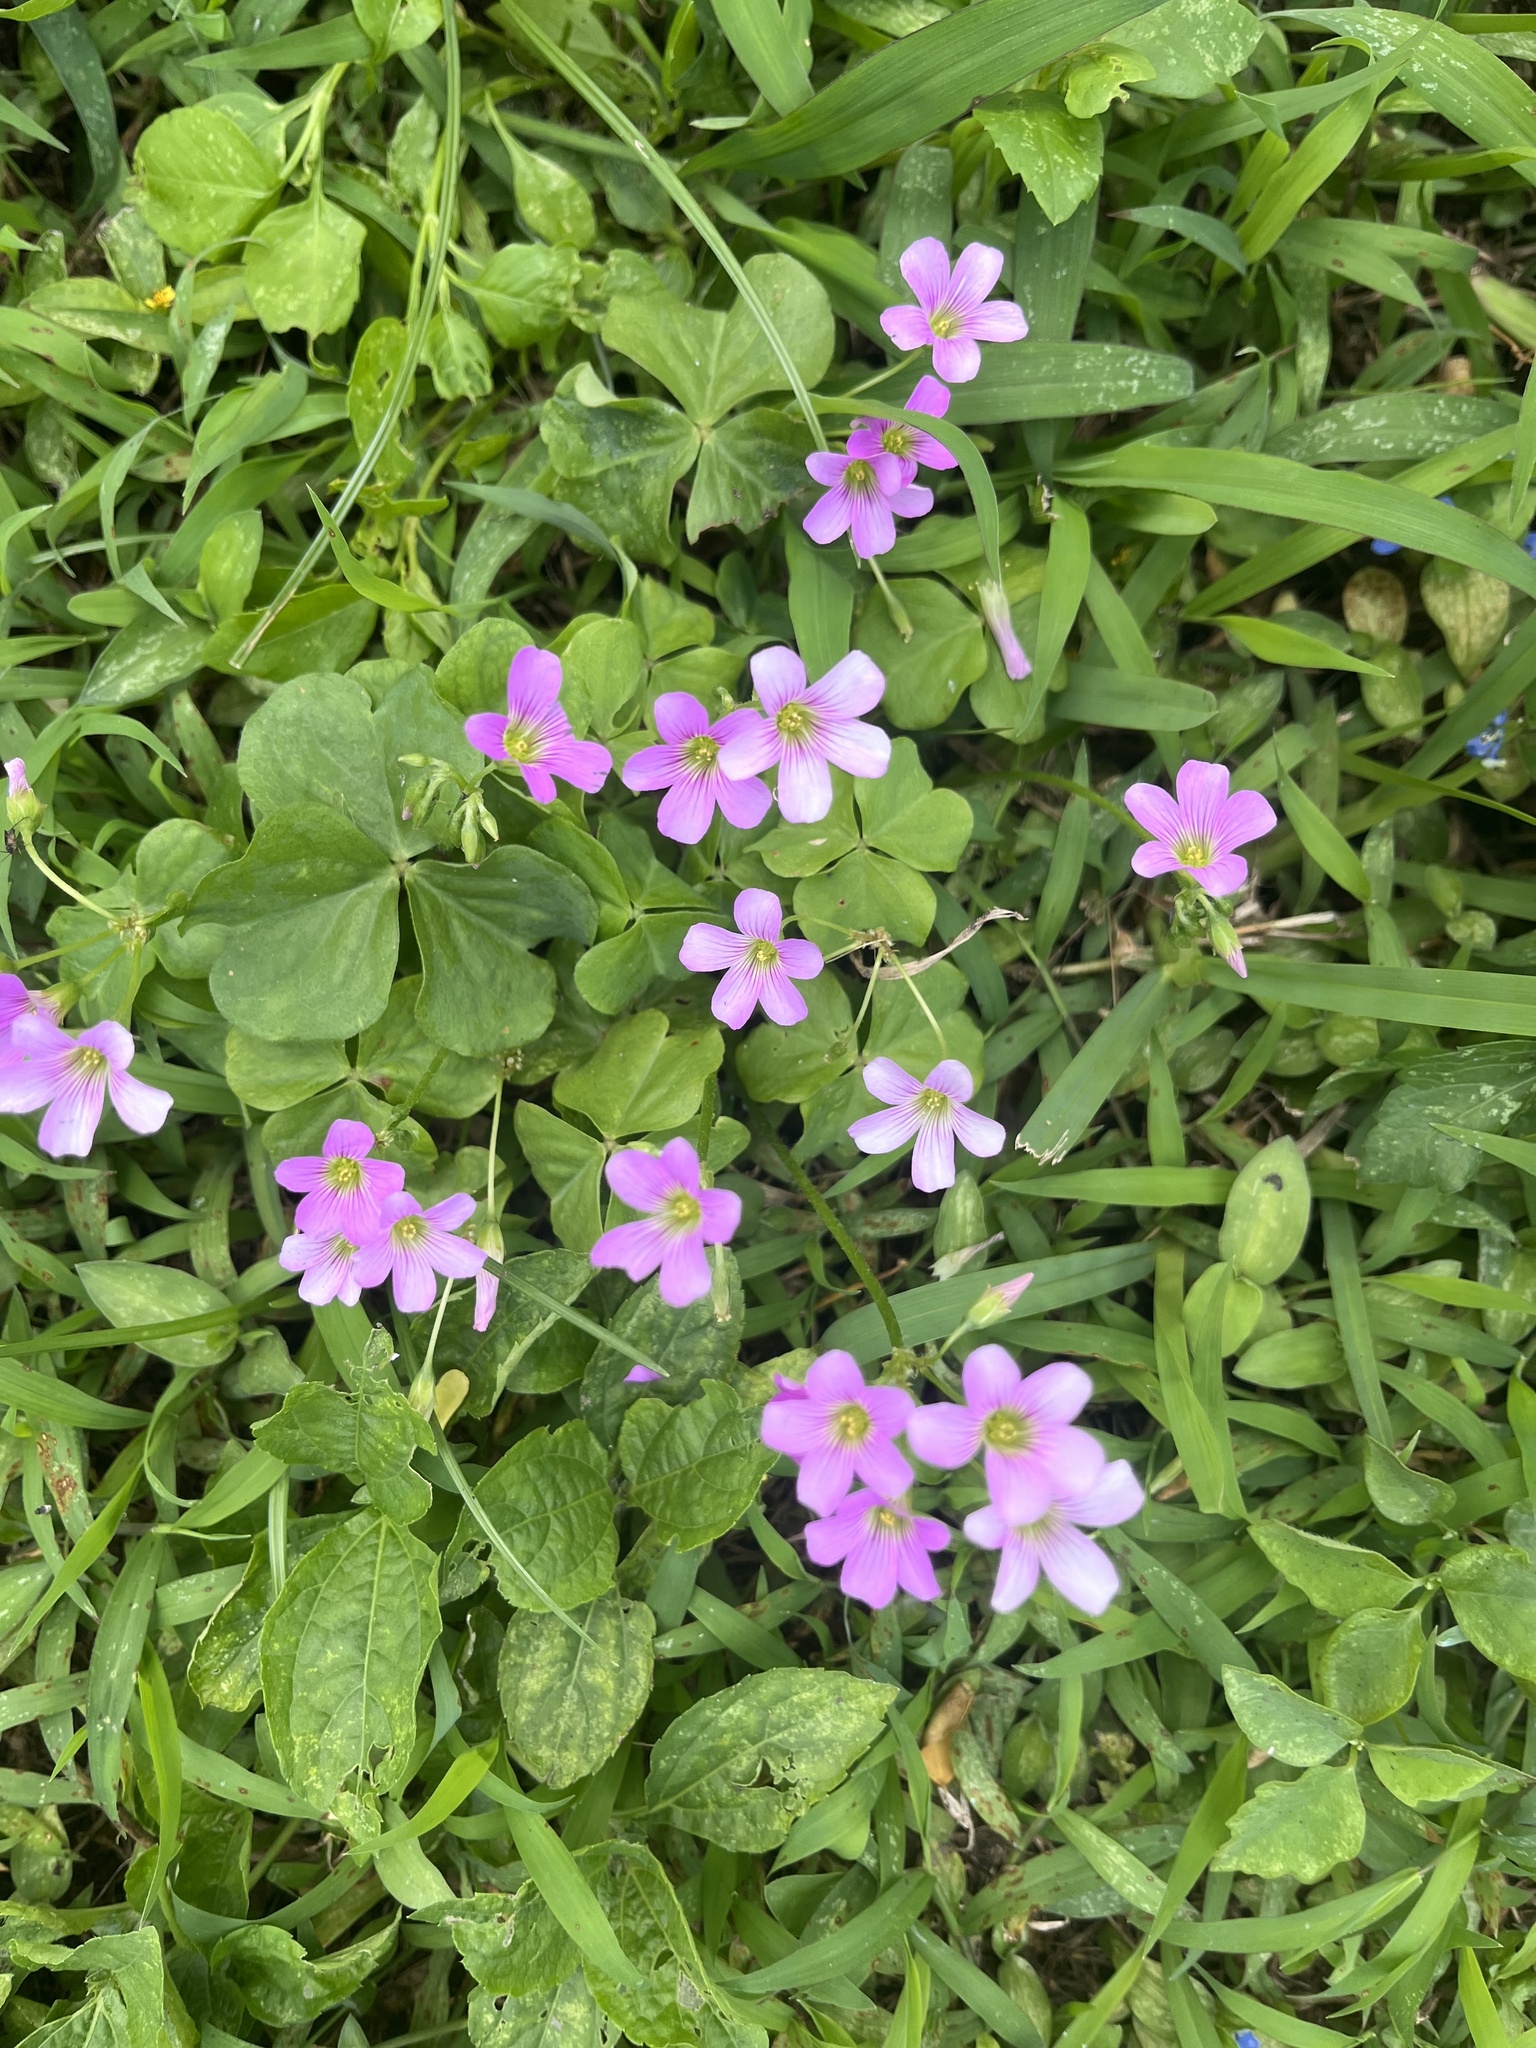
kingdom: Plantae
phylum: Tracheophyta
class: Magnoliopsida
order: Oxalidales
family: Oxalidaceae
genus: Oxalis
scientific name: Oxalis debilis
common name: Large-flowered pink-sorrel
